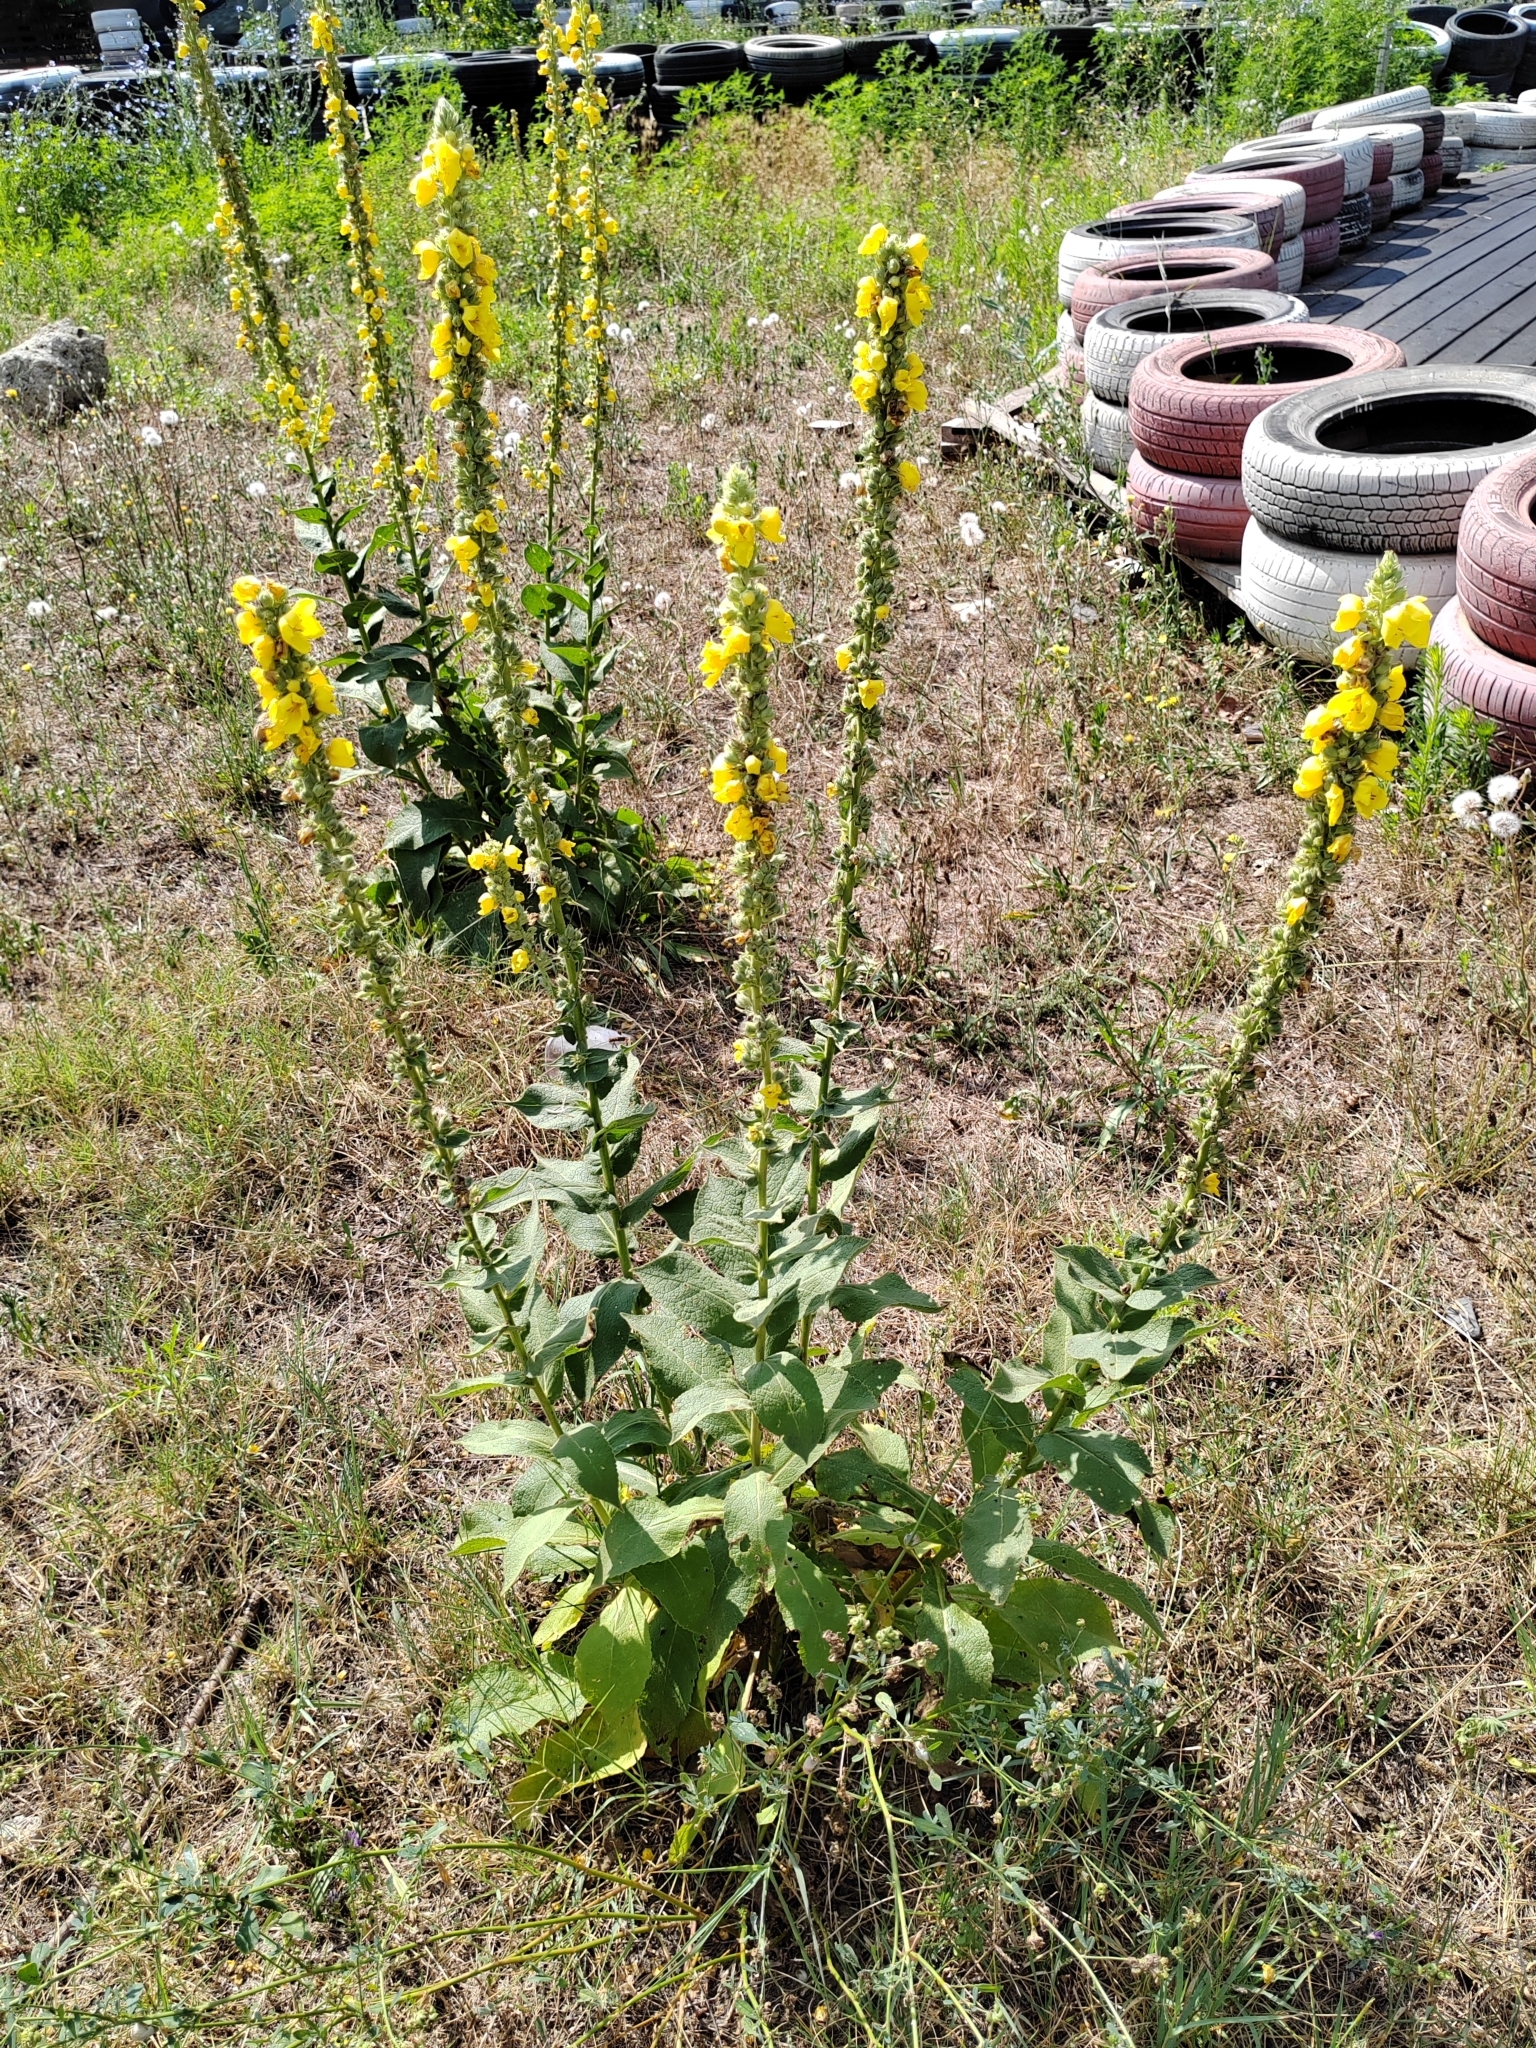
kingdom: Plantae
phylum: Tracheophyta
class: Magnoliopsida
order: Lamiales
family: Scrophulariaceae
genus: Verbascum
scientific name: Verbascum phlomoides
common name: Orange mullein
